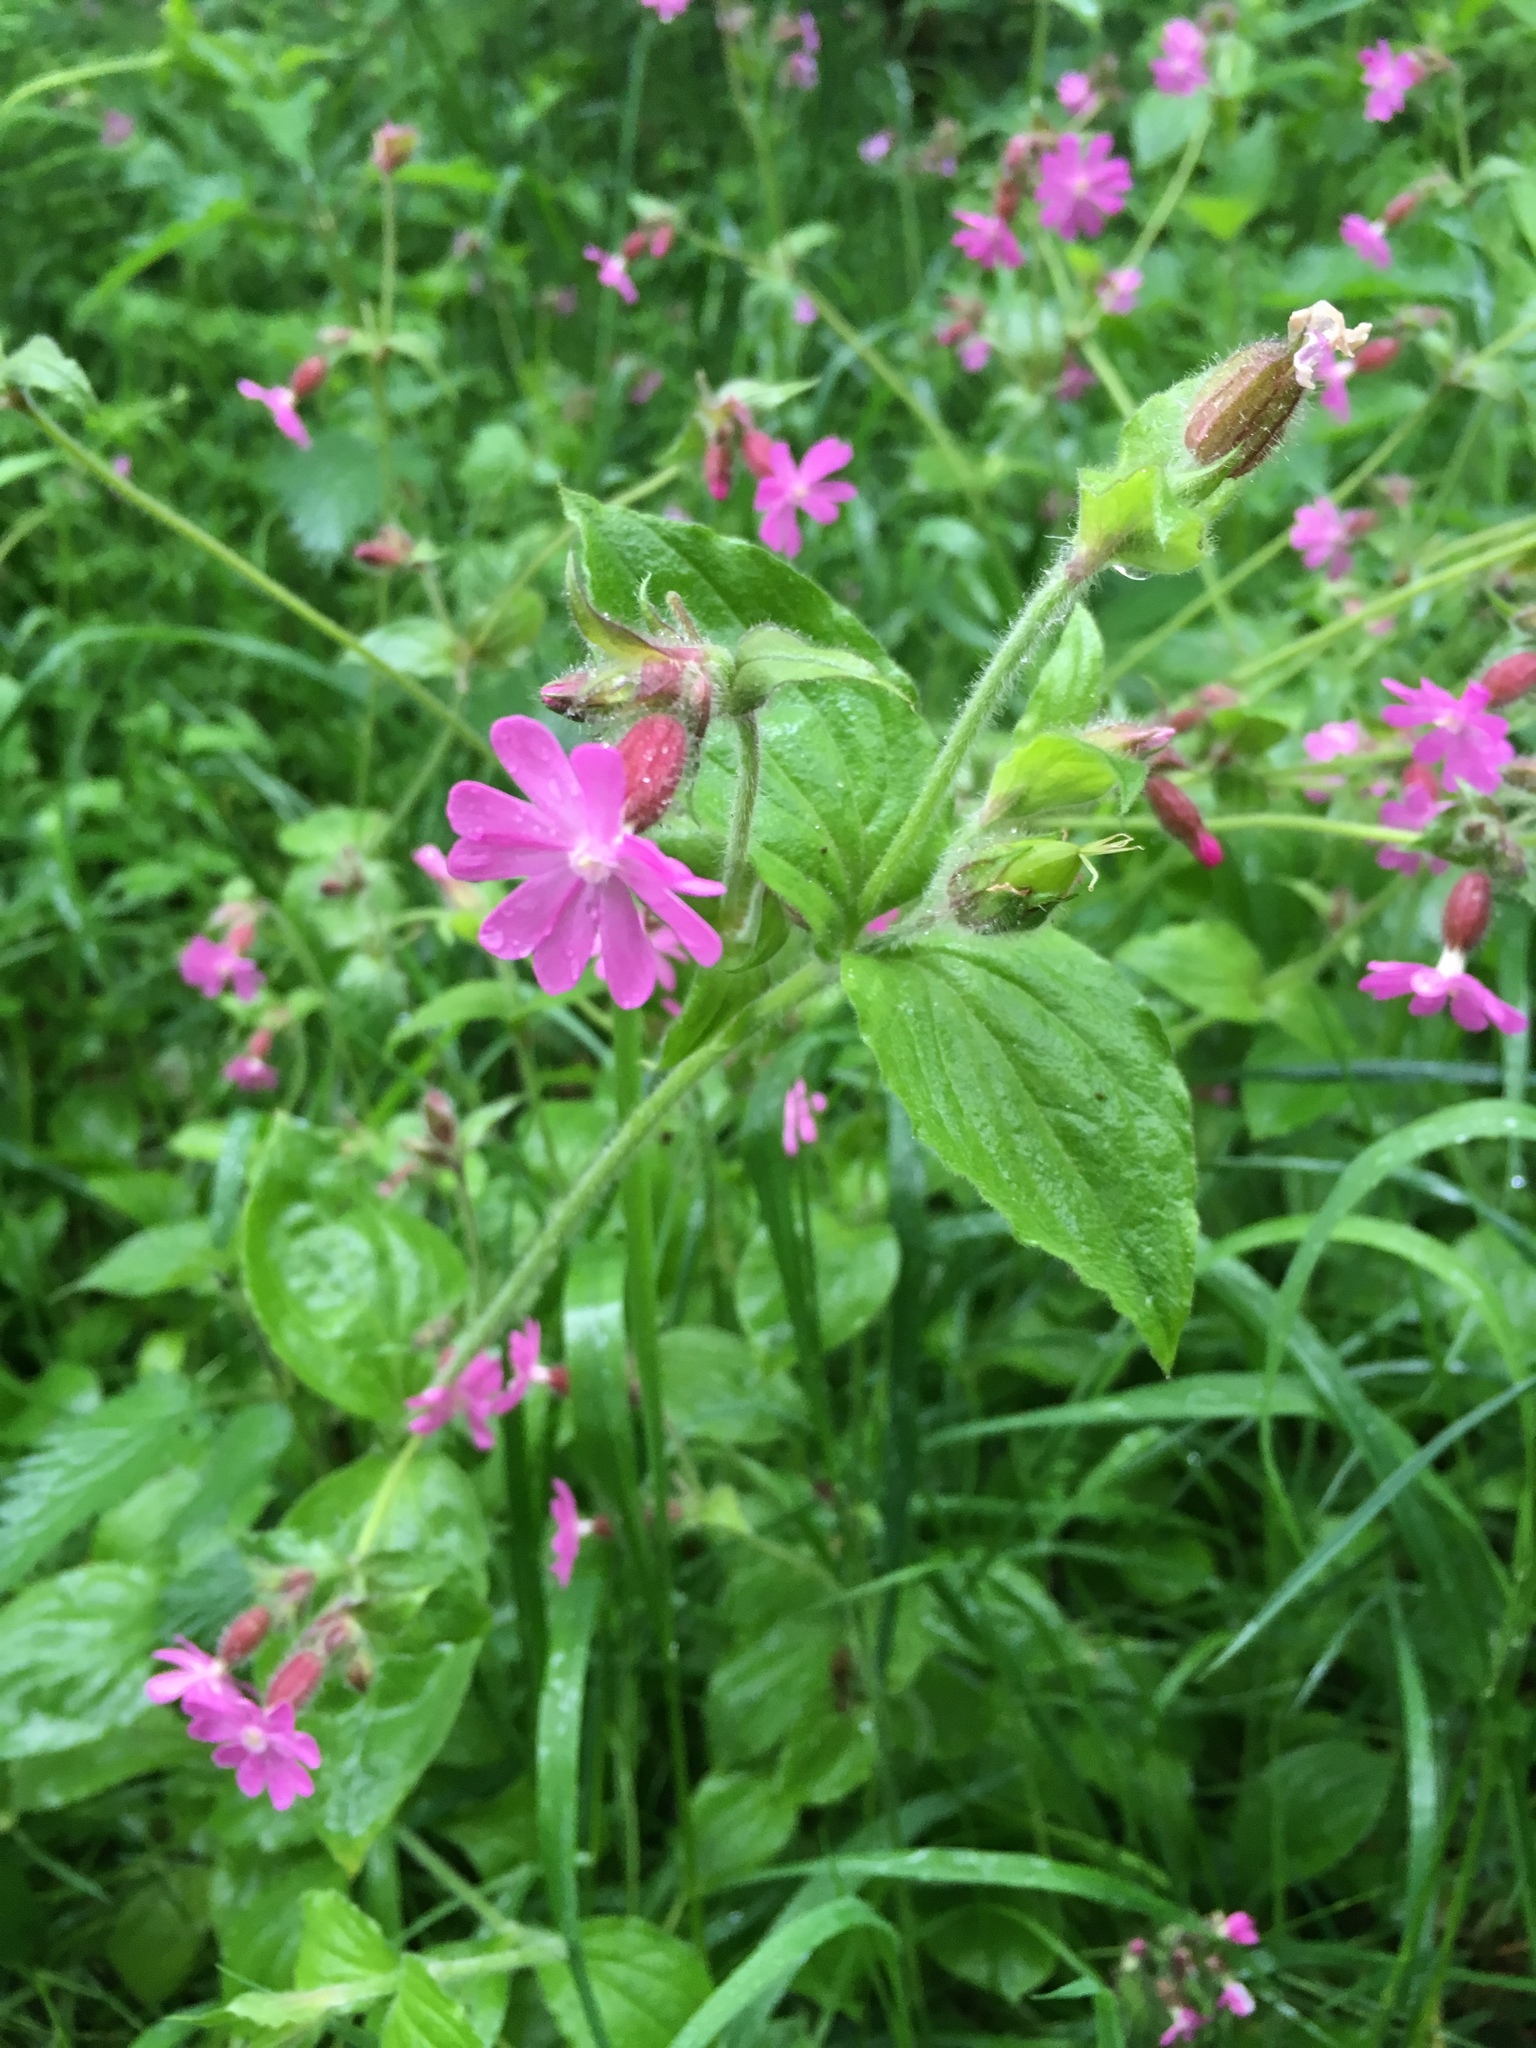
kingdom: Plantae
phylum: Tracheophyta
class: Magnoliopsida
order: Caryophyllales
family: Caryophyllaceae
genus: Silene
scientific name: Silene dioica
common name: Red campion
